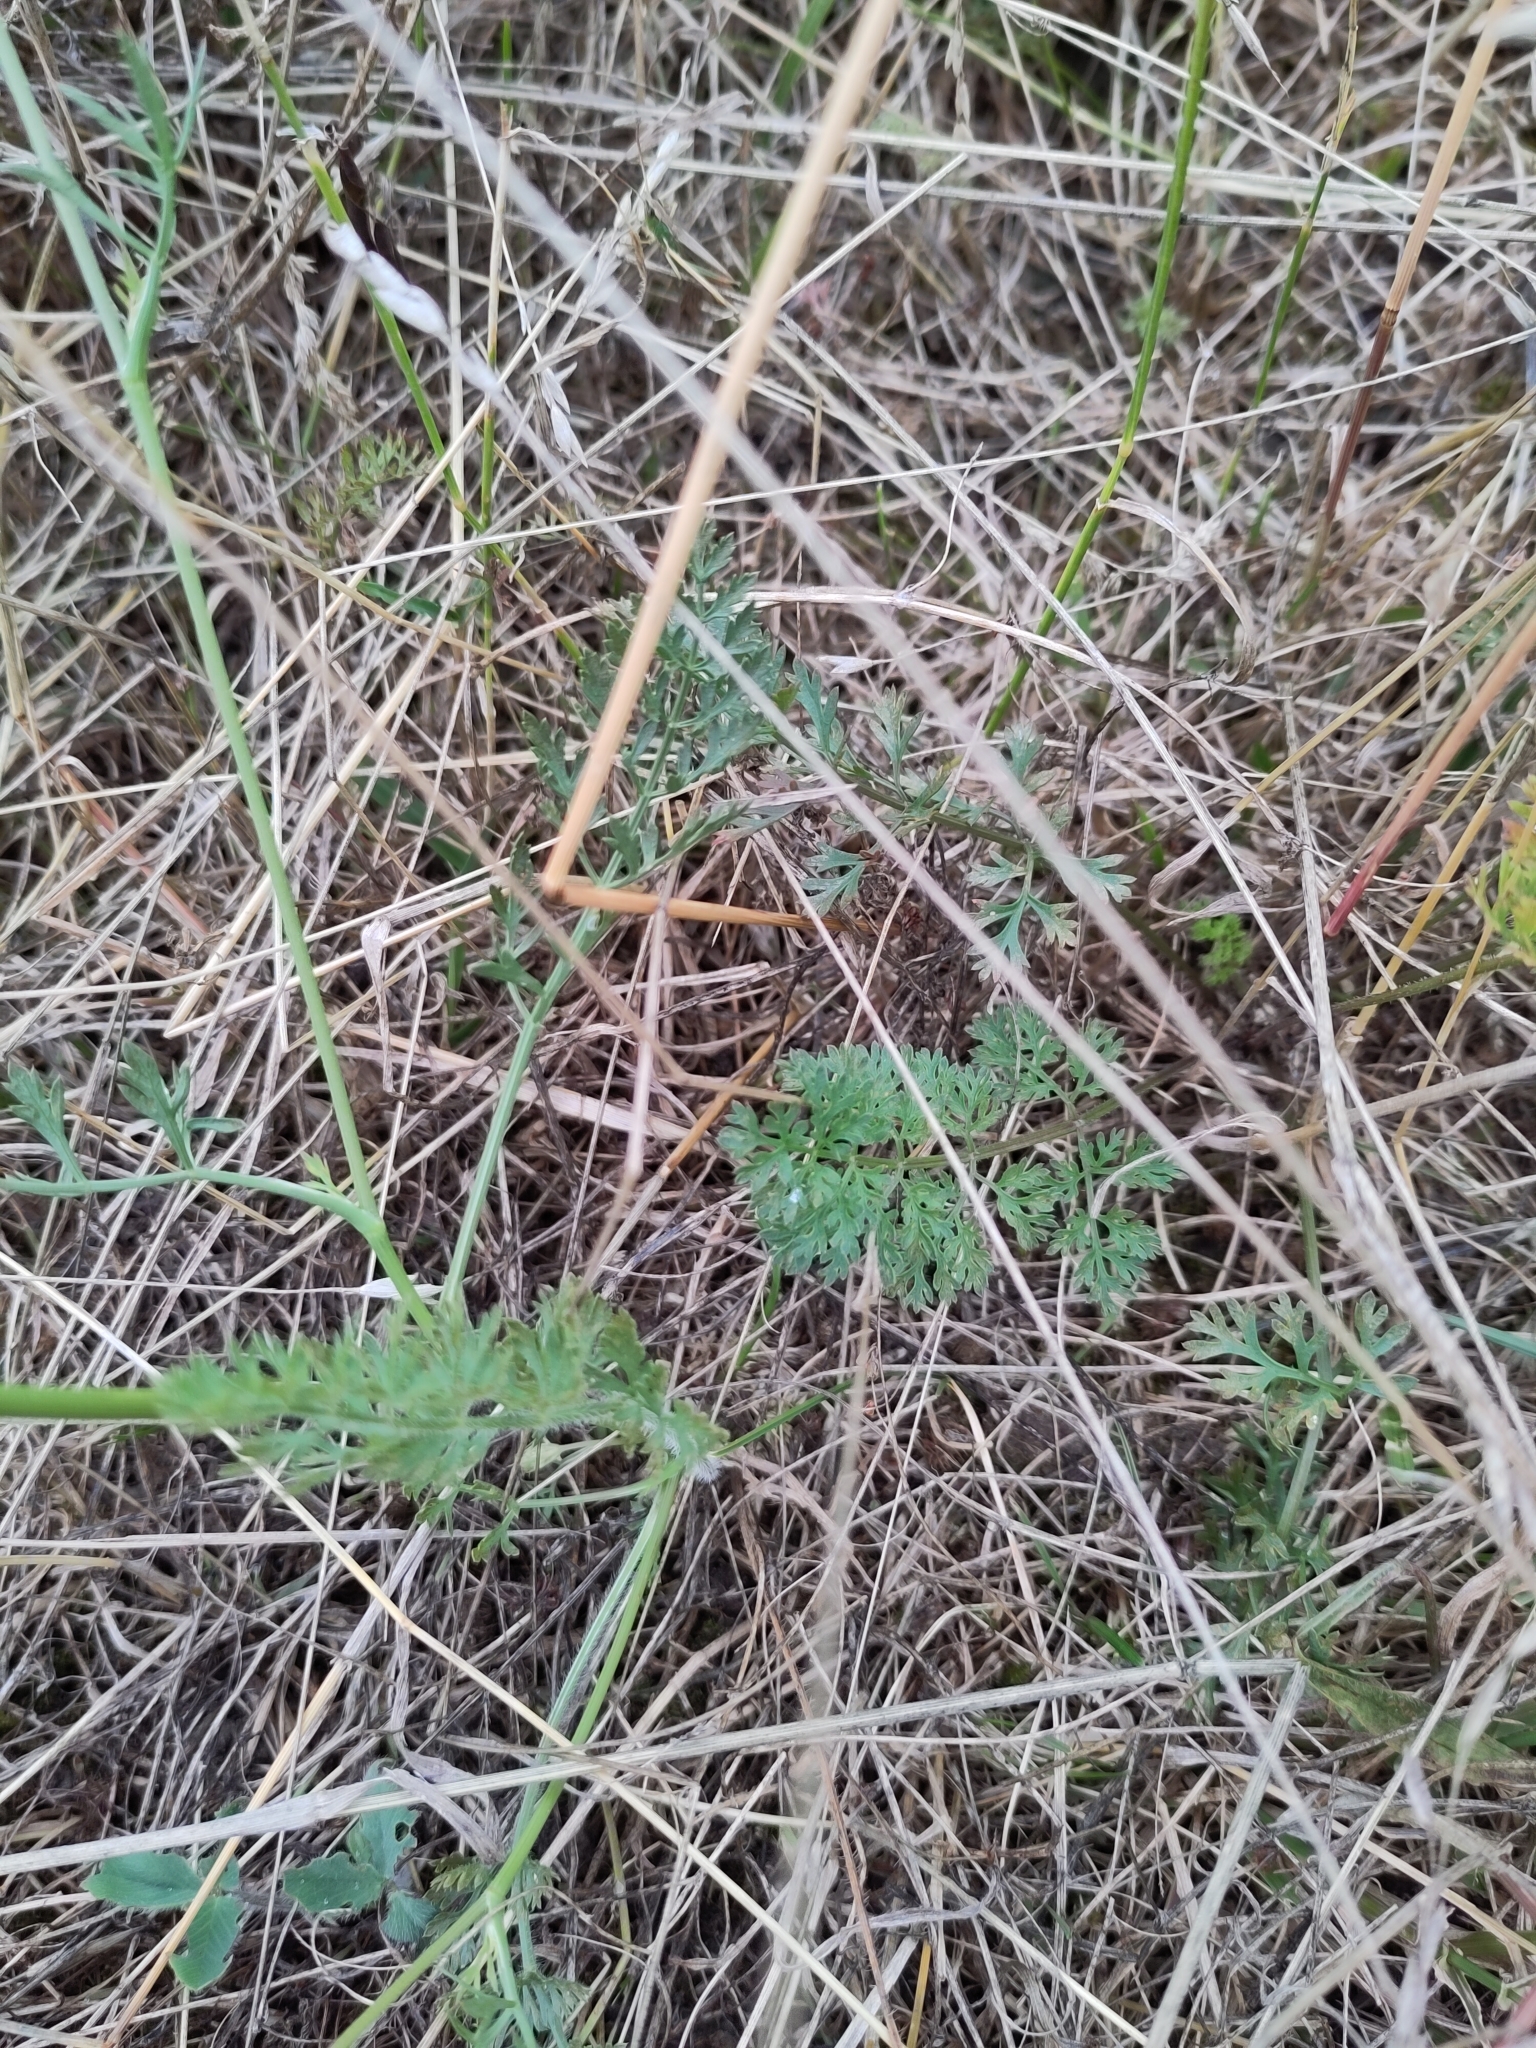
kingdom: Plantae
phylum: Tracheophyta
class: Magnoliopsida
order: Apiales
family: Apiaceae
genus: Daucus
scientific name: Daucus carota
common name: Wild carrot
